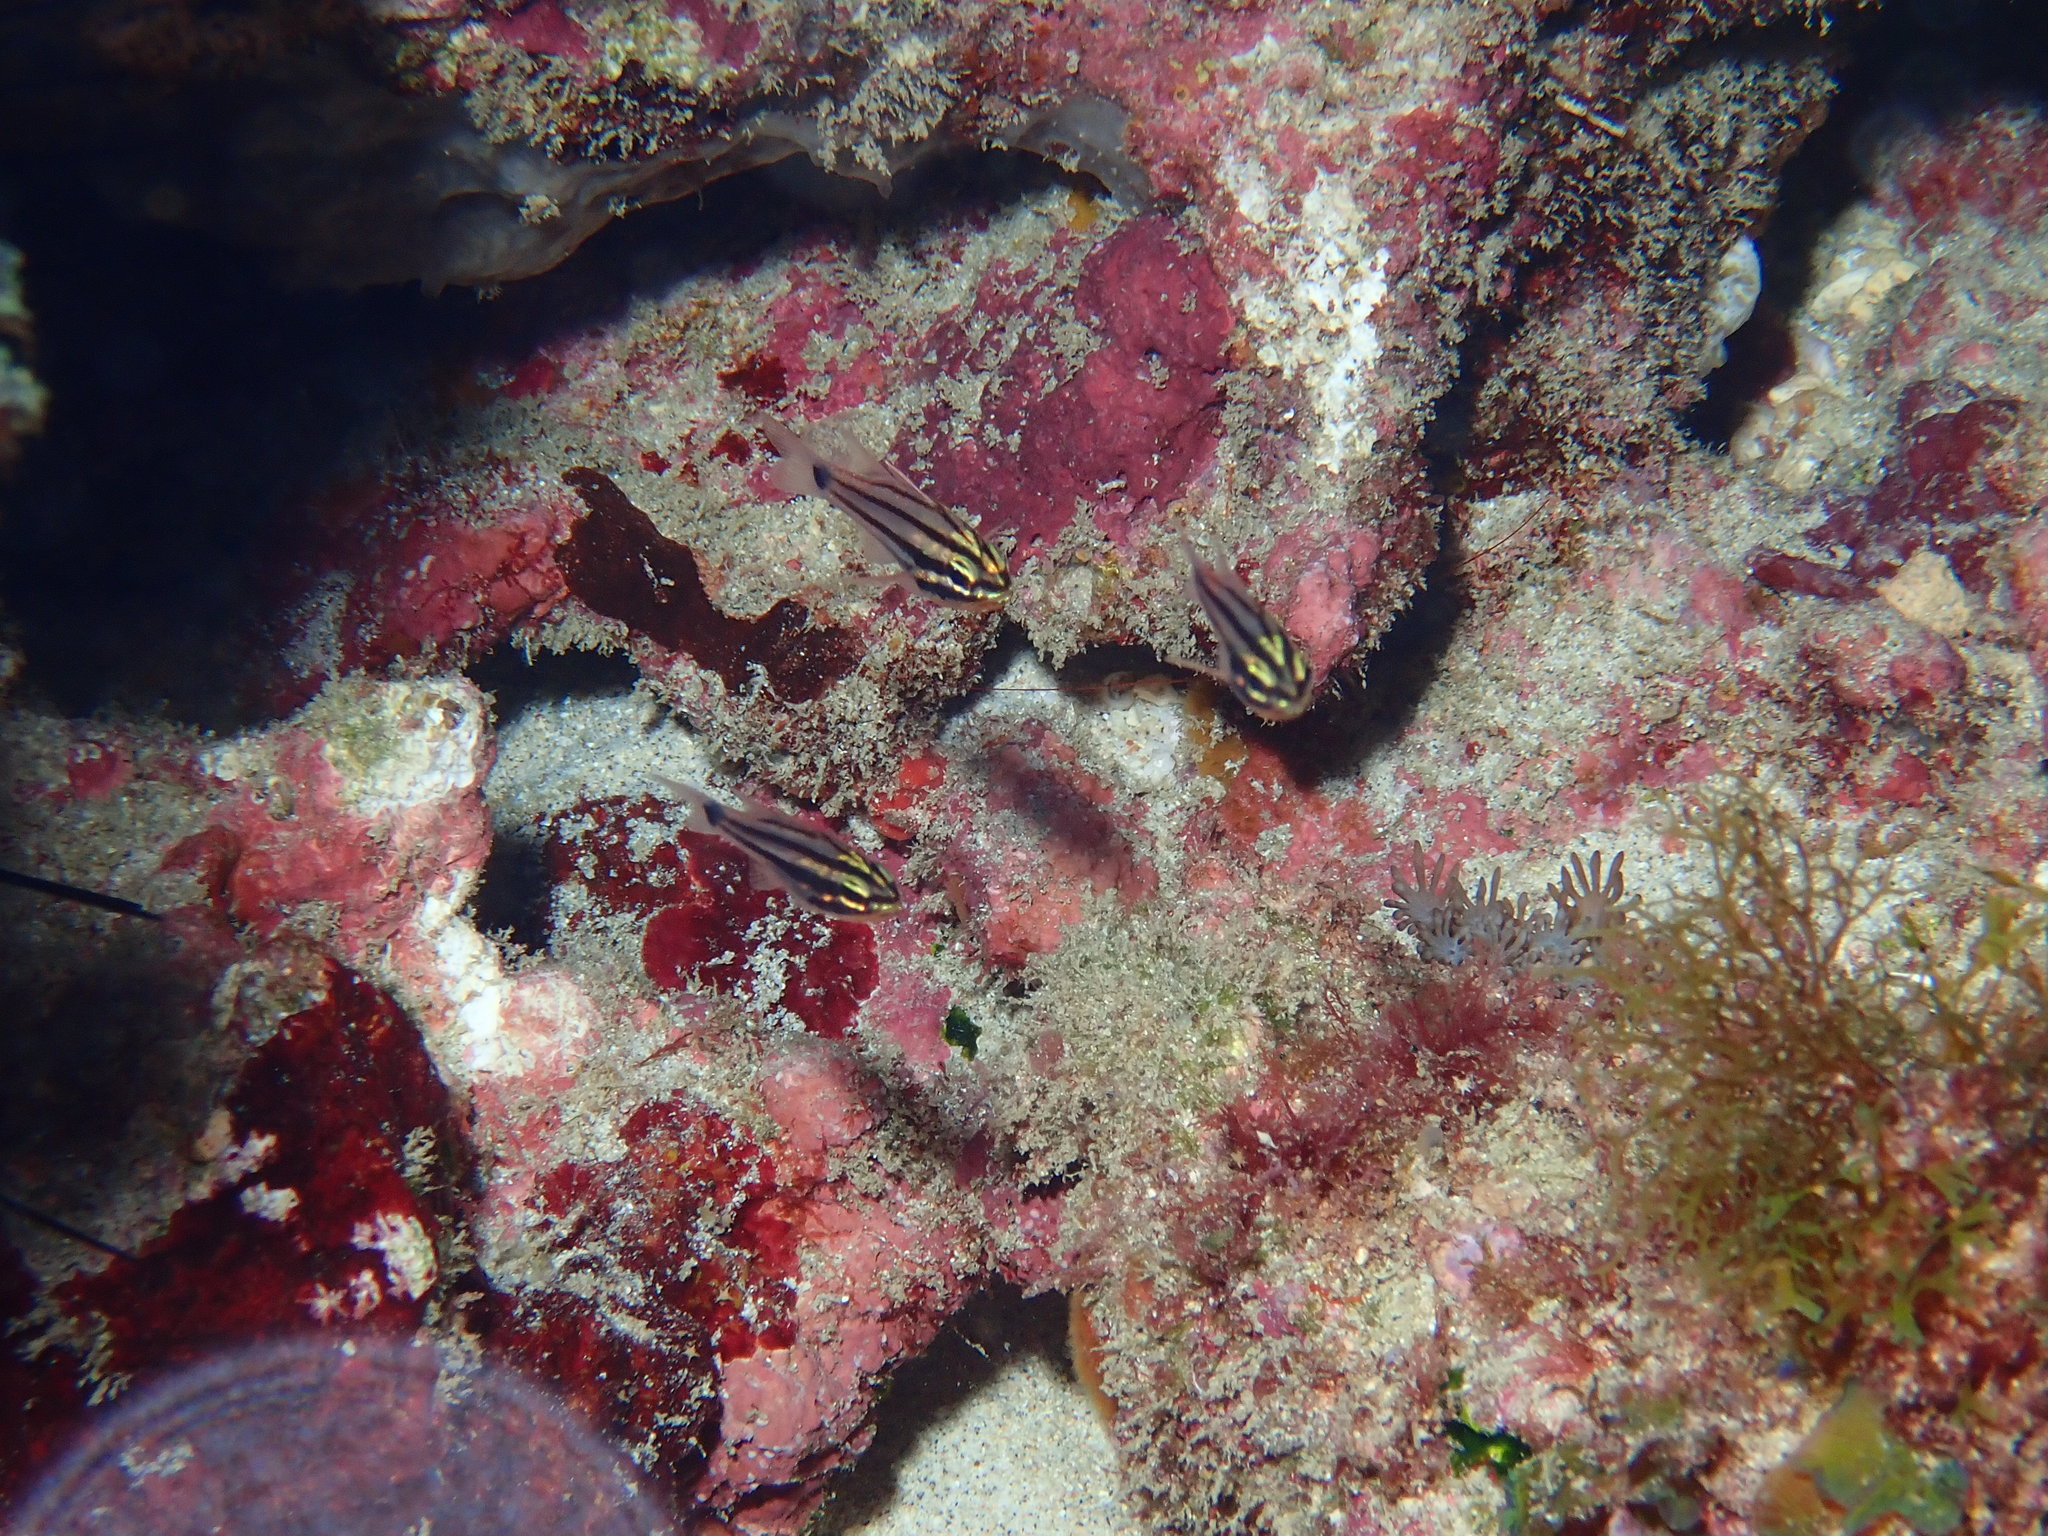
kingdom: Animalia
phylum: Chordata
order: Perciformes
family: Apogonidae
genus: Ostorhinchus
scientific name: Ostorhinchus doederleini
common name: Doederlein's cardinalfish
